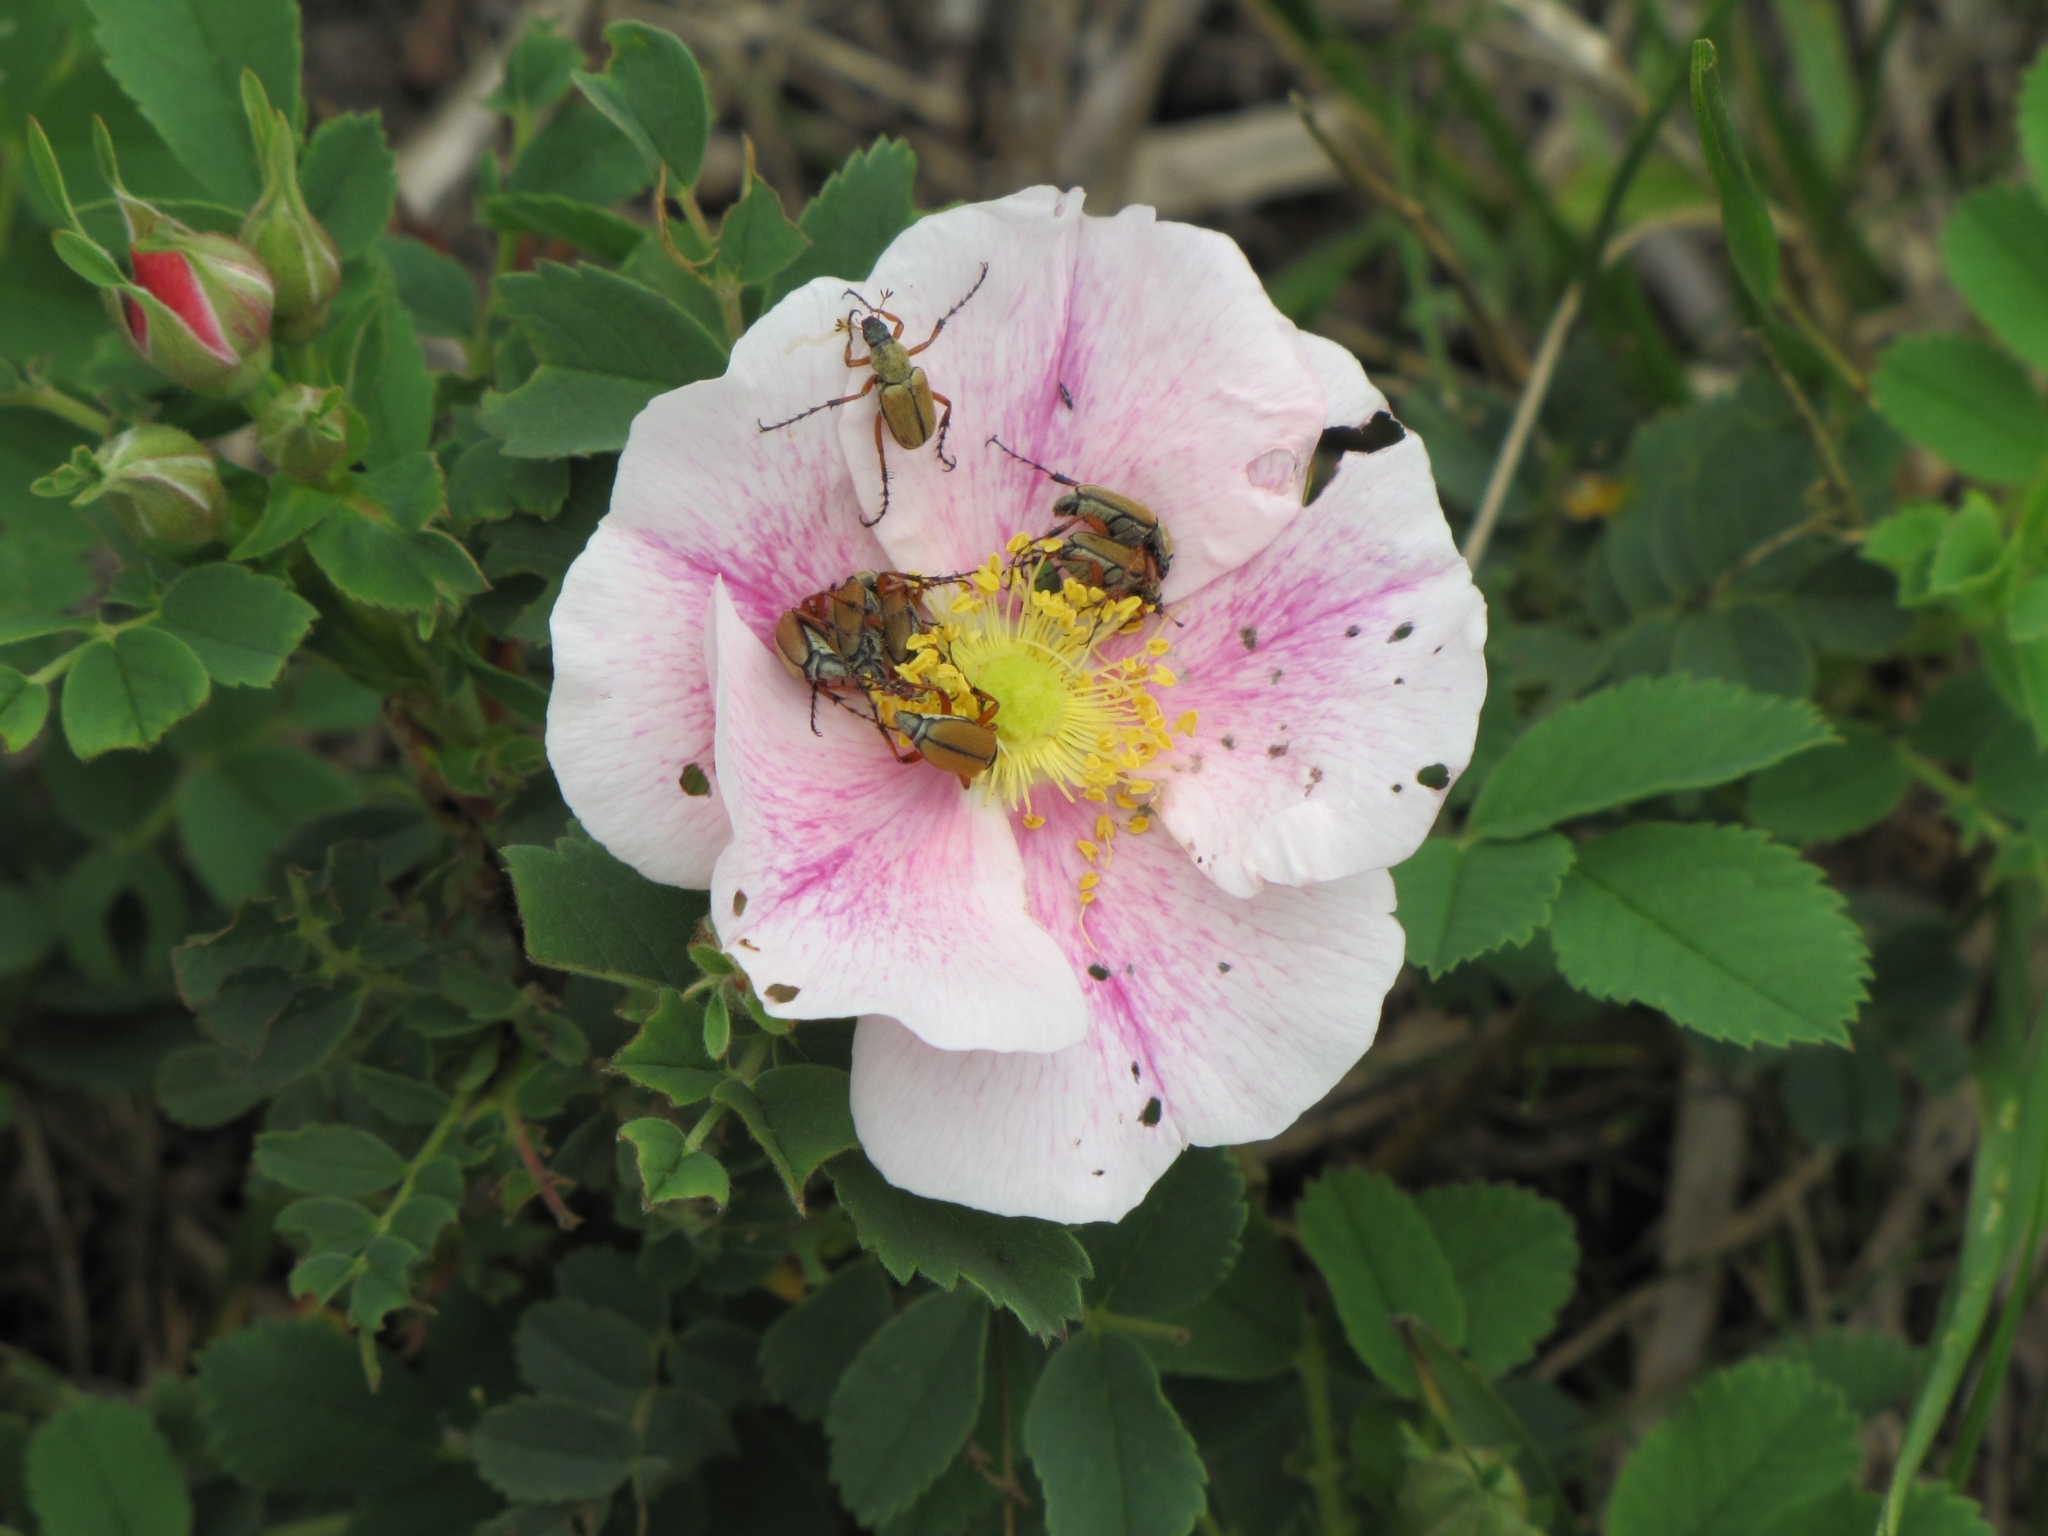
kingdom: Animalia
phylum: Arthropoda
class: Insecta
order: Coleoptera
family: Scarabaeidae
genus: Macrodactylus
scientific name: Macrodactylus subspinosus
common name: American rose chafer
